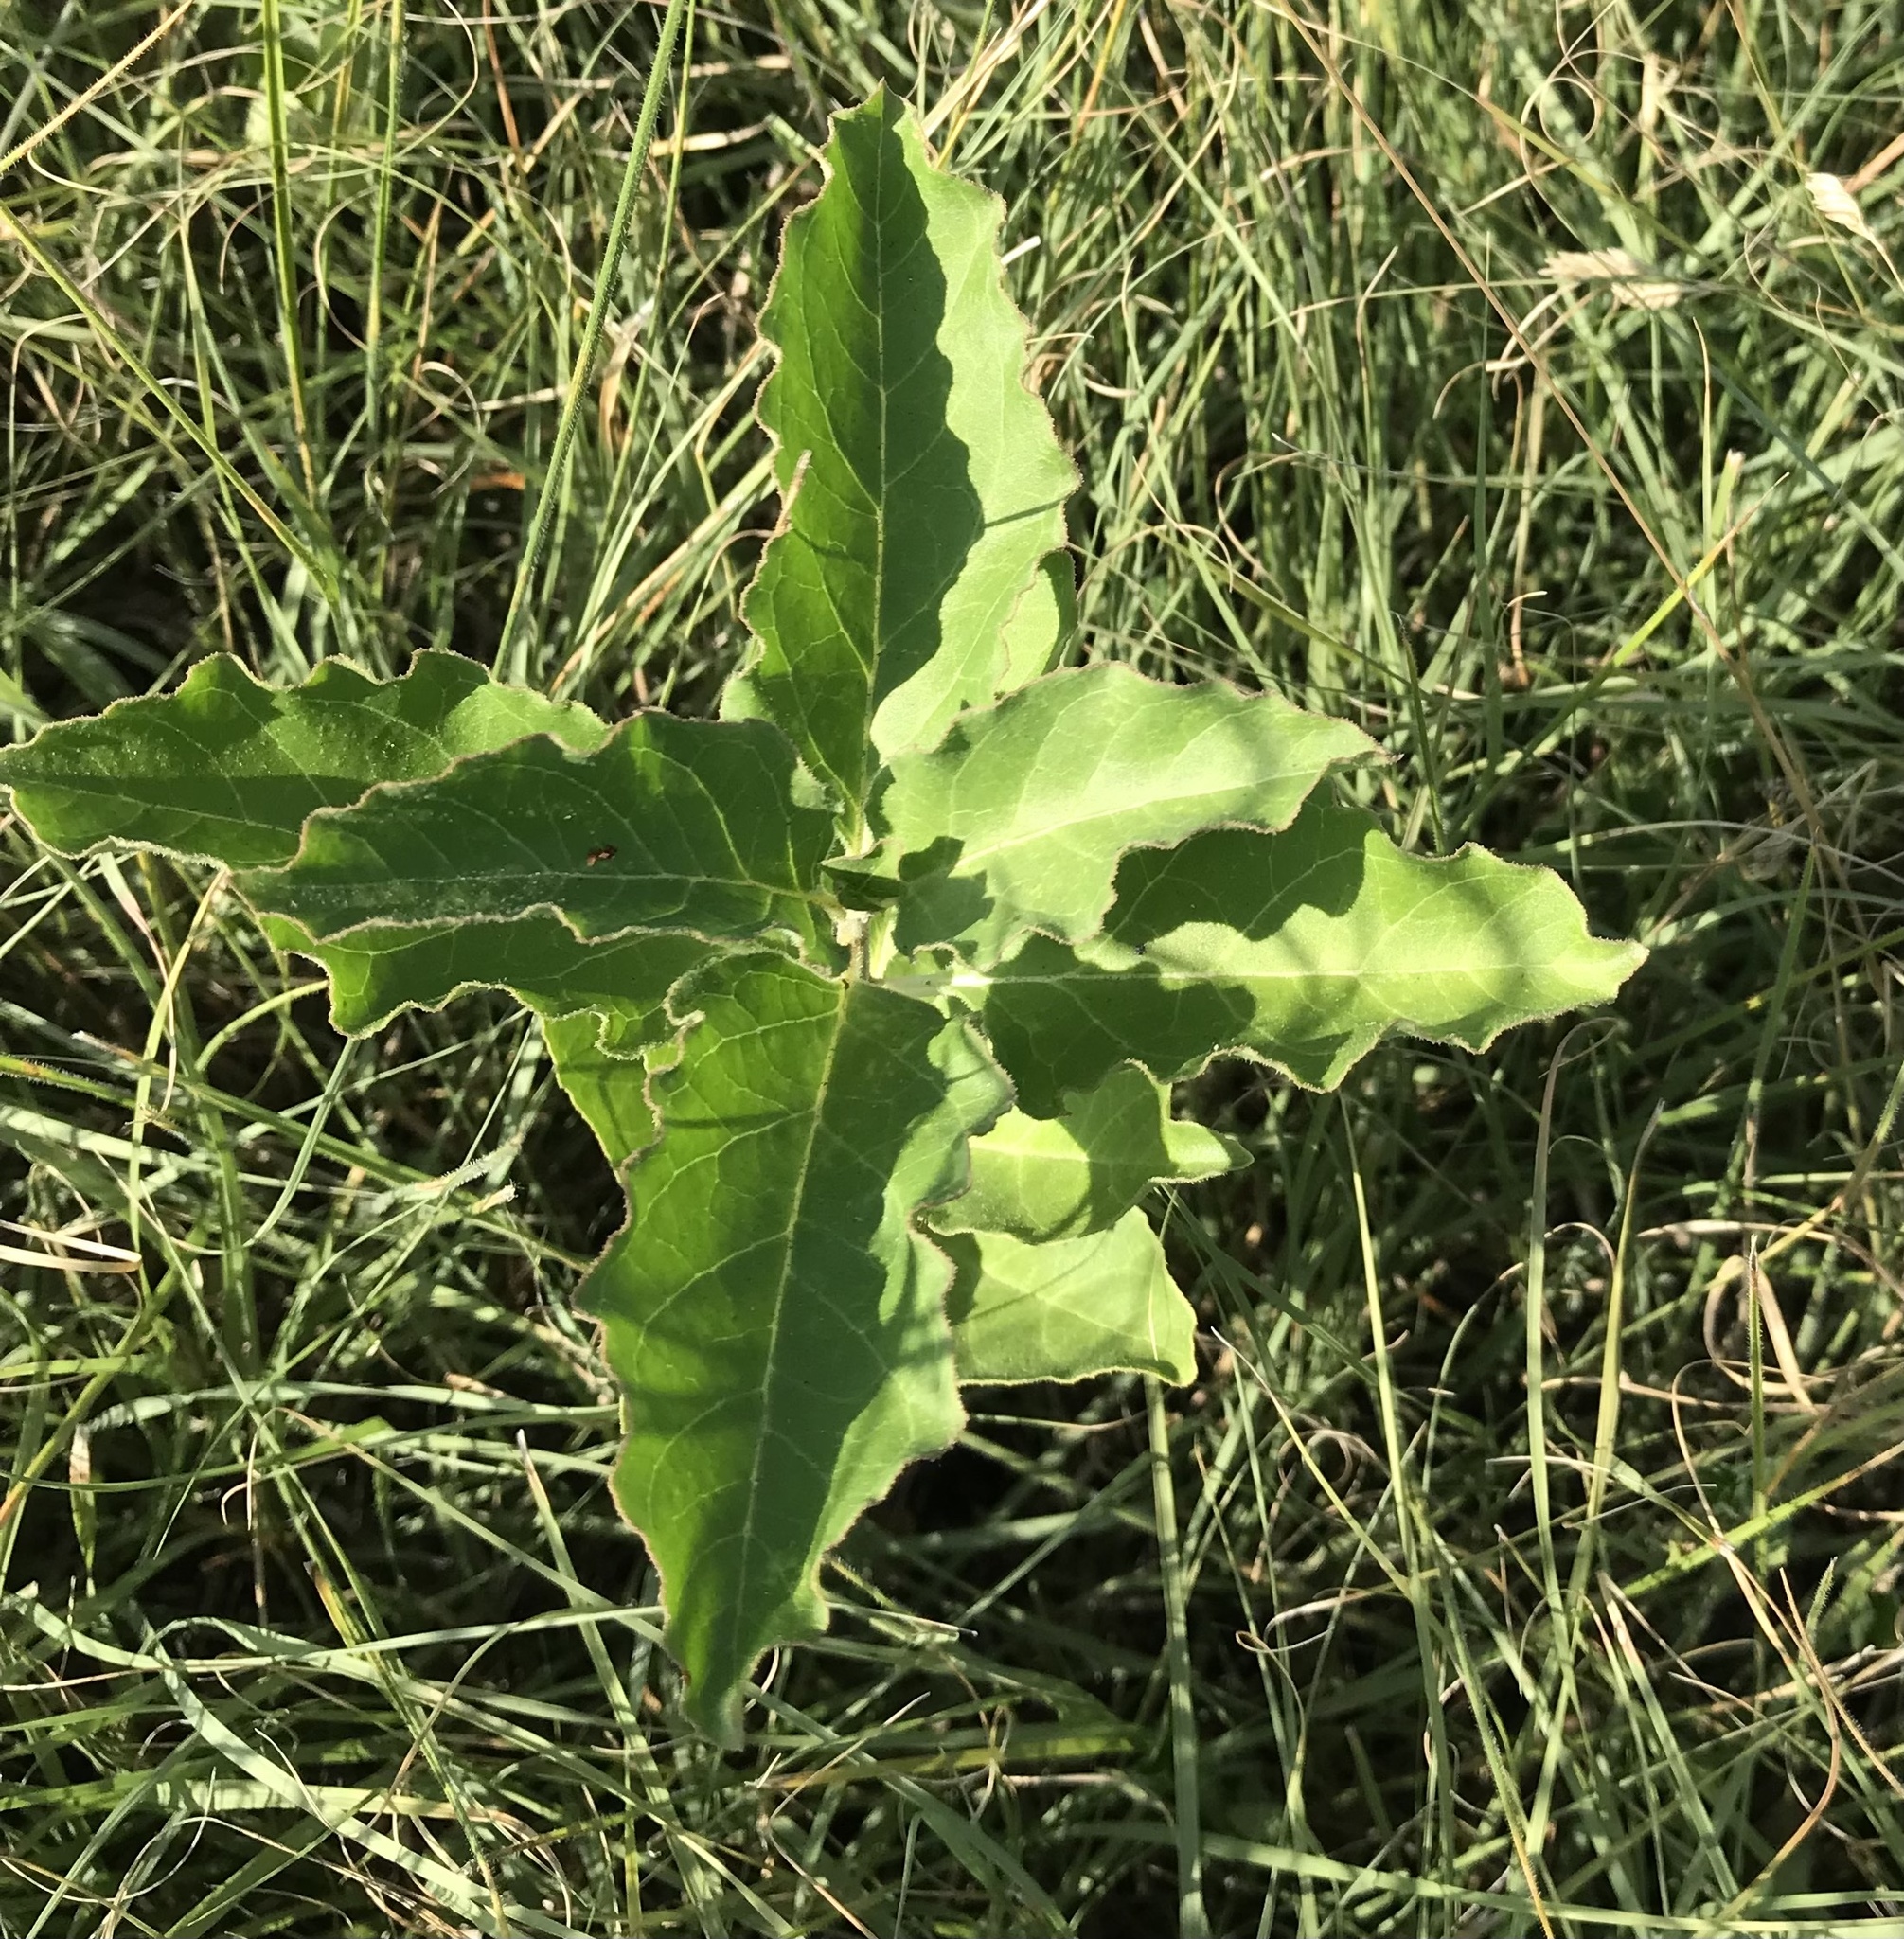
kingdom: Plantae
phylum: Tracheophyta
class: Magnoliopsida
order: Gentianales
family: Apocynaceae
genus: Asclepias
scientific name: Asclepias oenotheroides
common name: Zizotes milkweed
